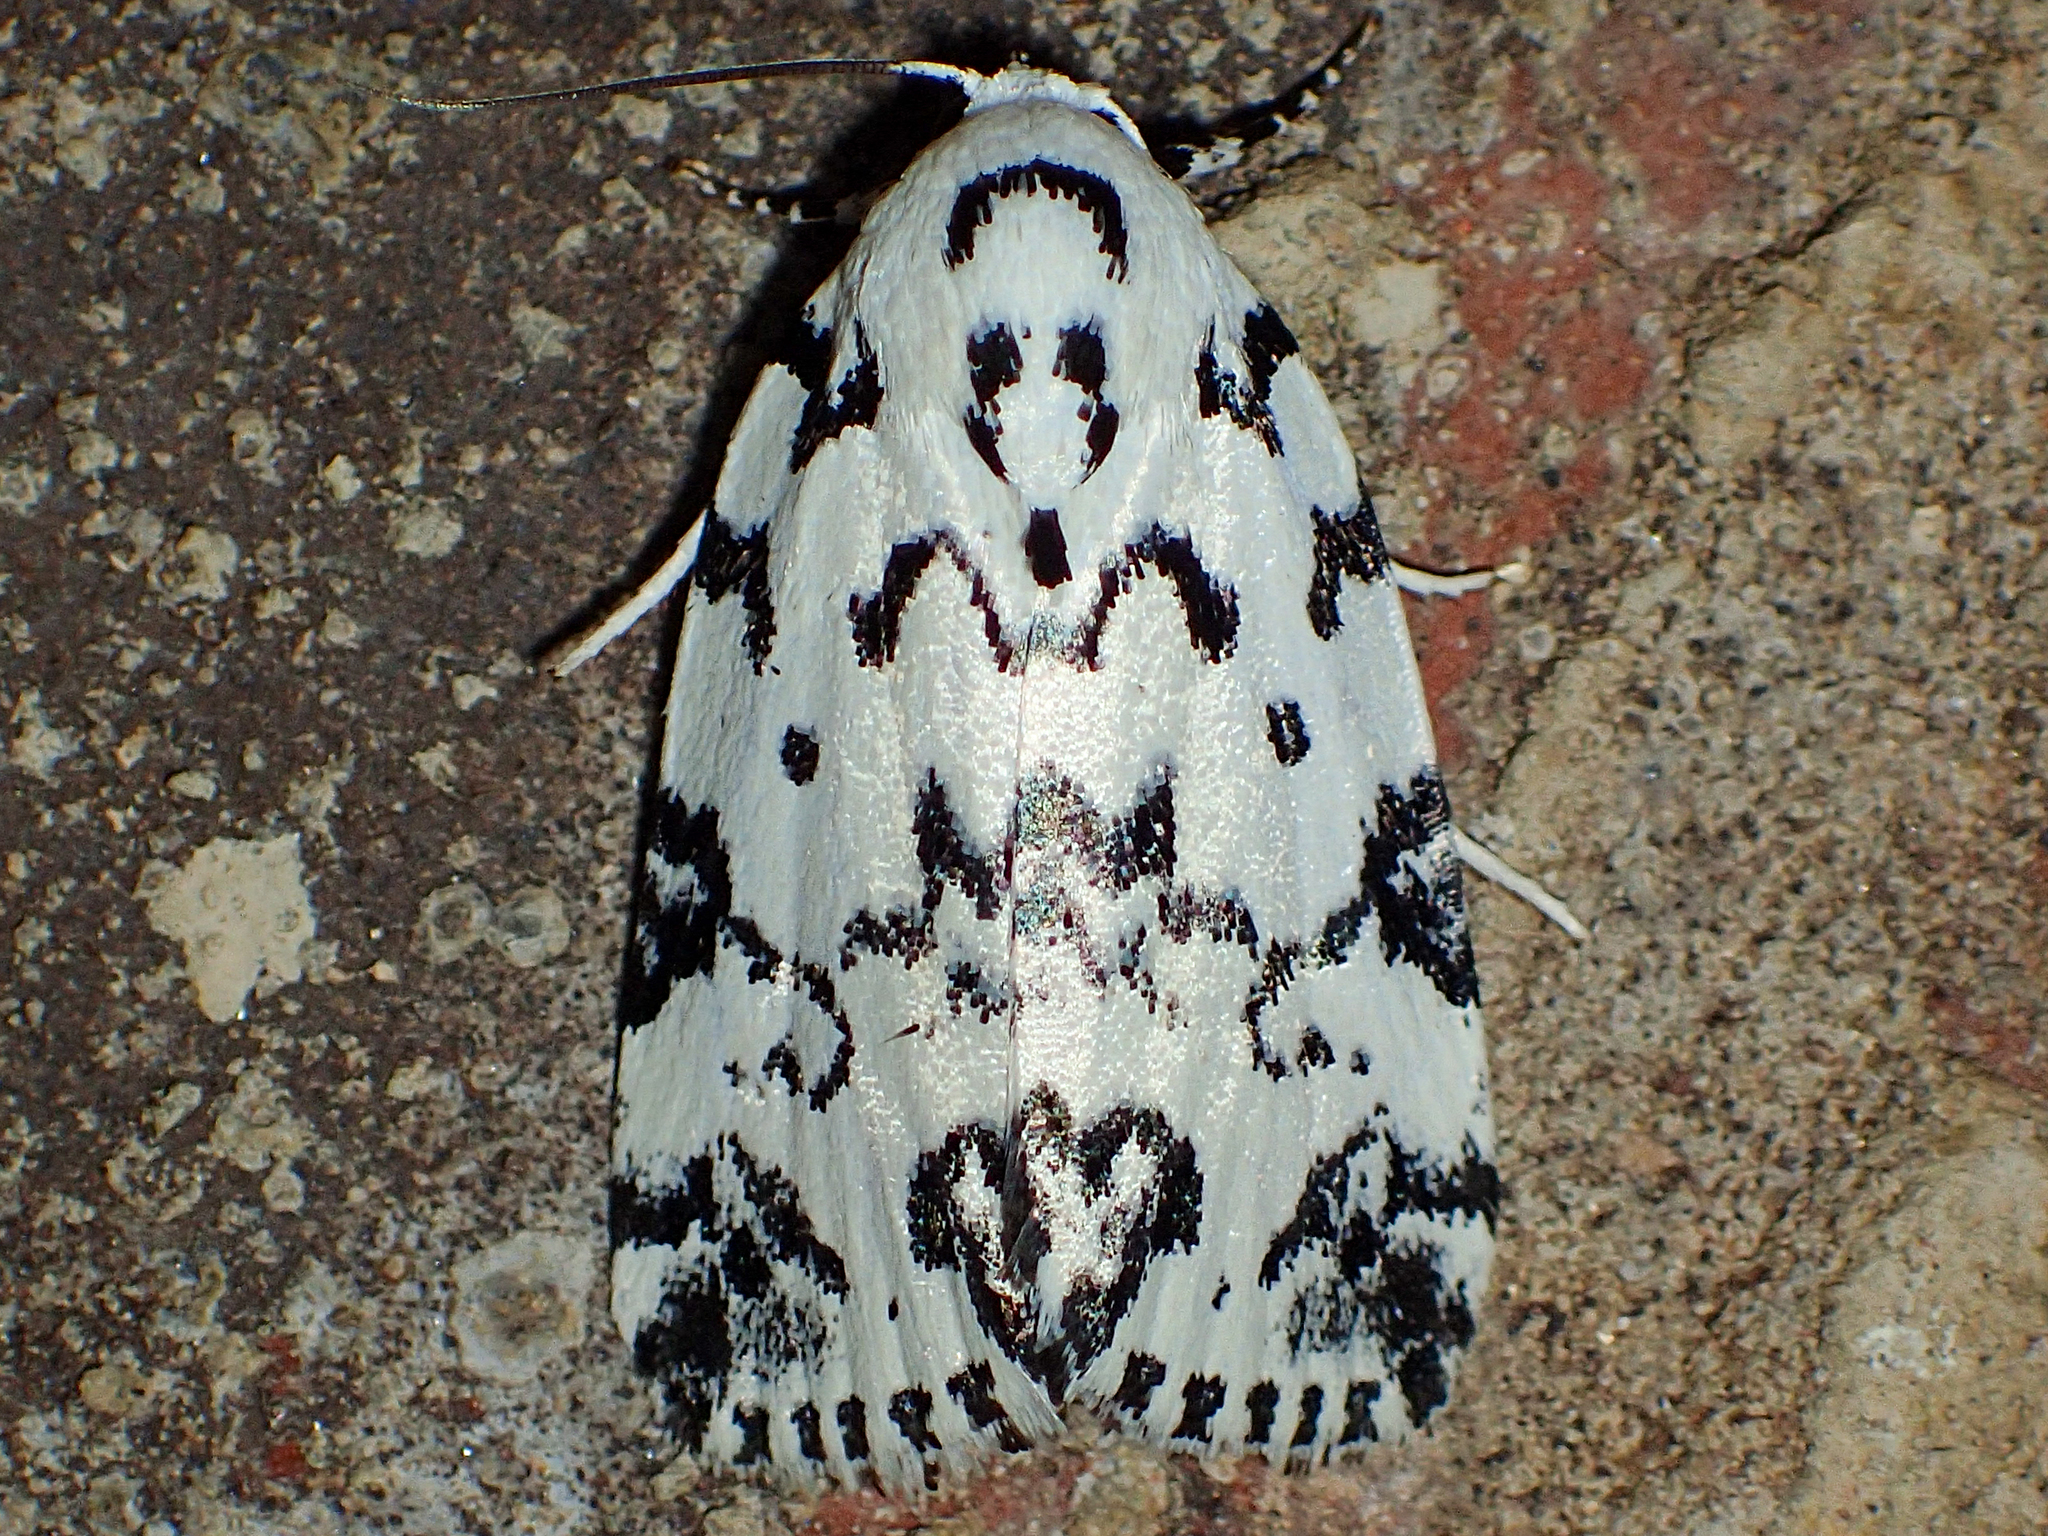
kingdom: Animalia
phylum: Arthropoda
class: Insecta
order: Lepidoptera
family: Noctuidae
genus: Polygrammate
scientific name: Polygrammate hebraeicum
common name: Hebrew moth
